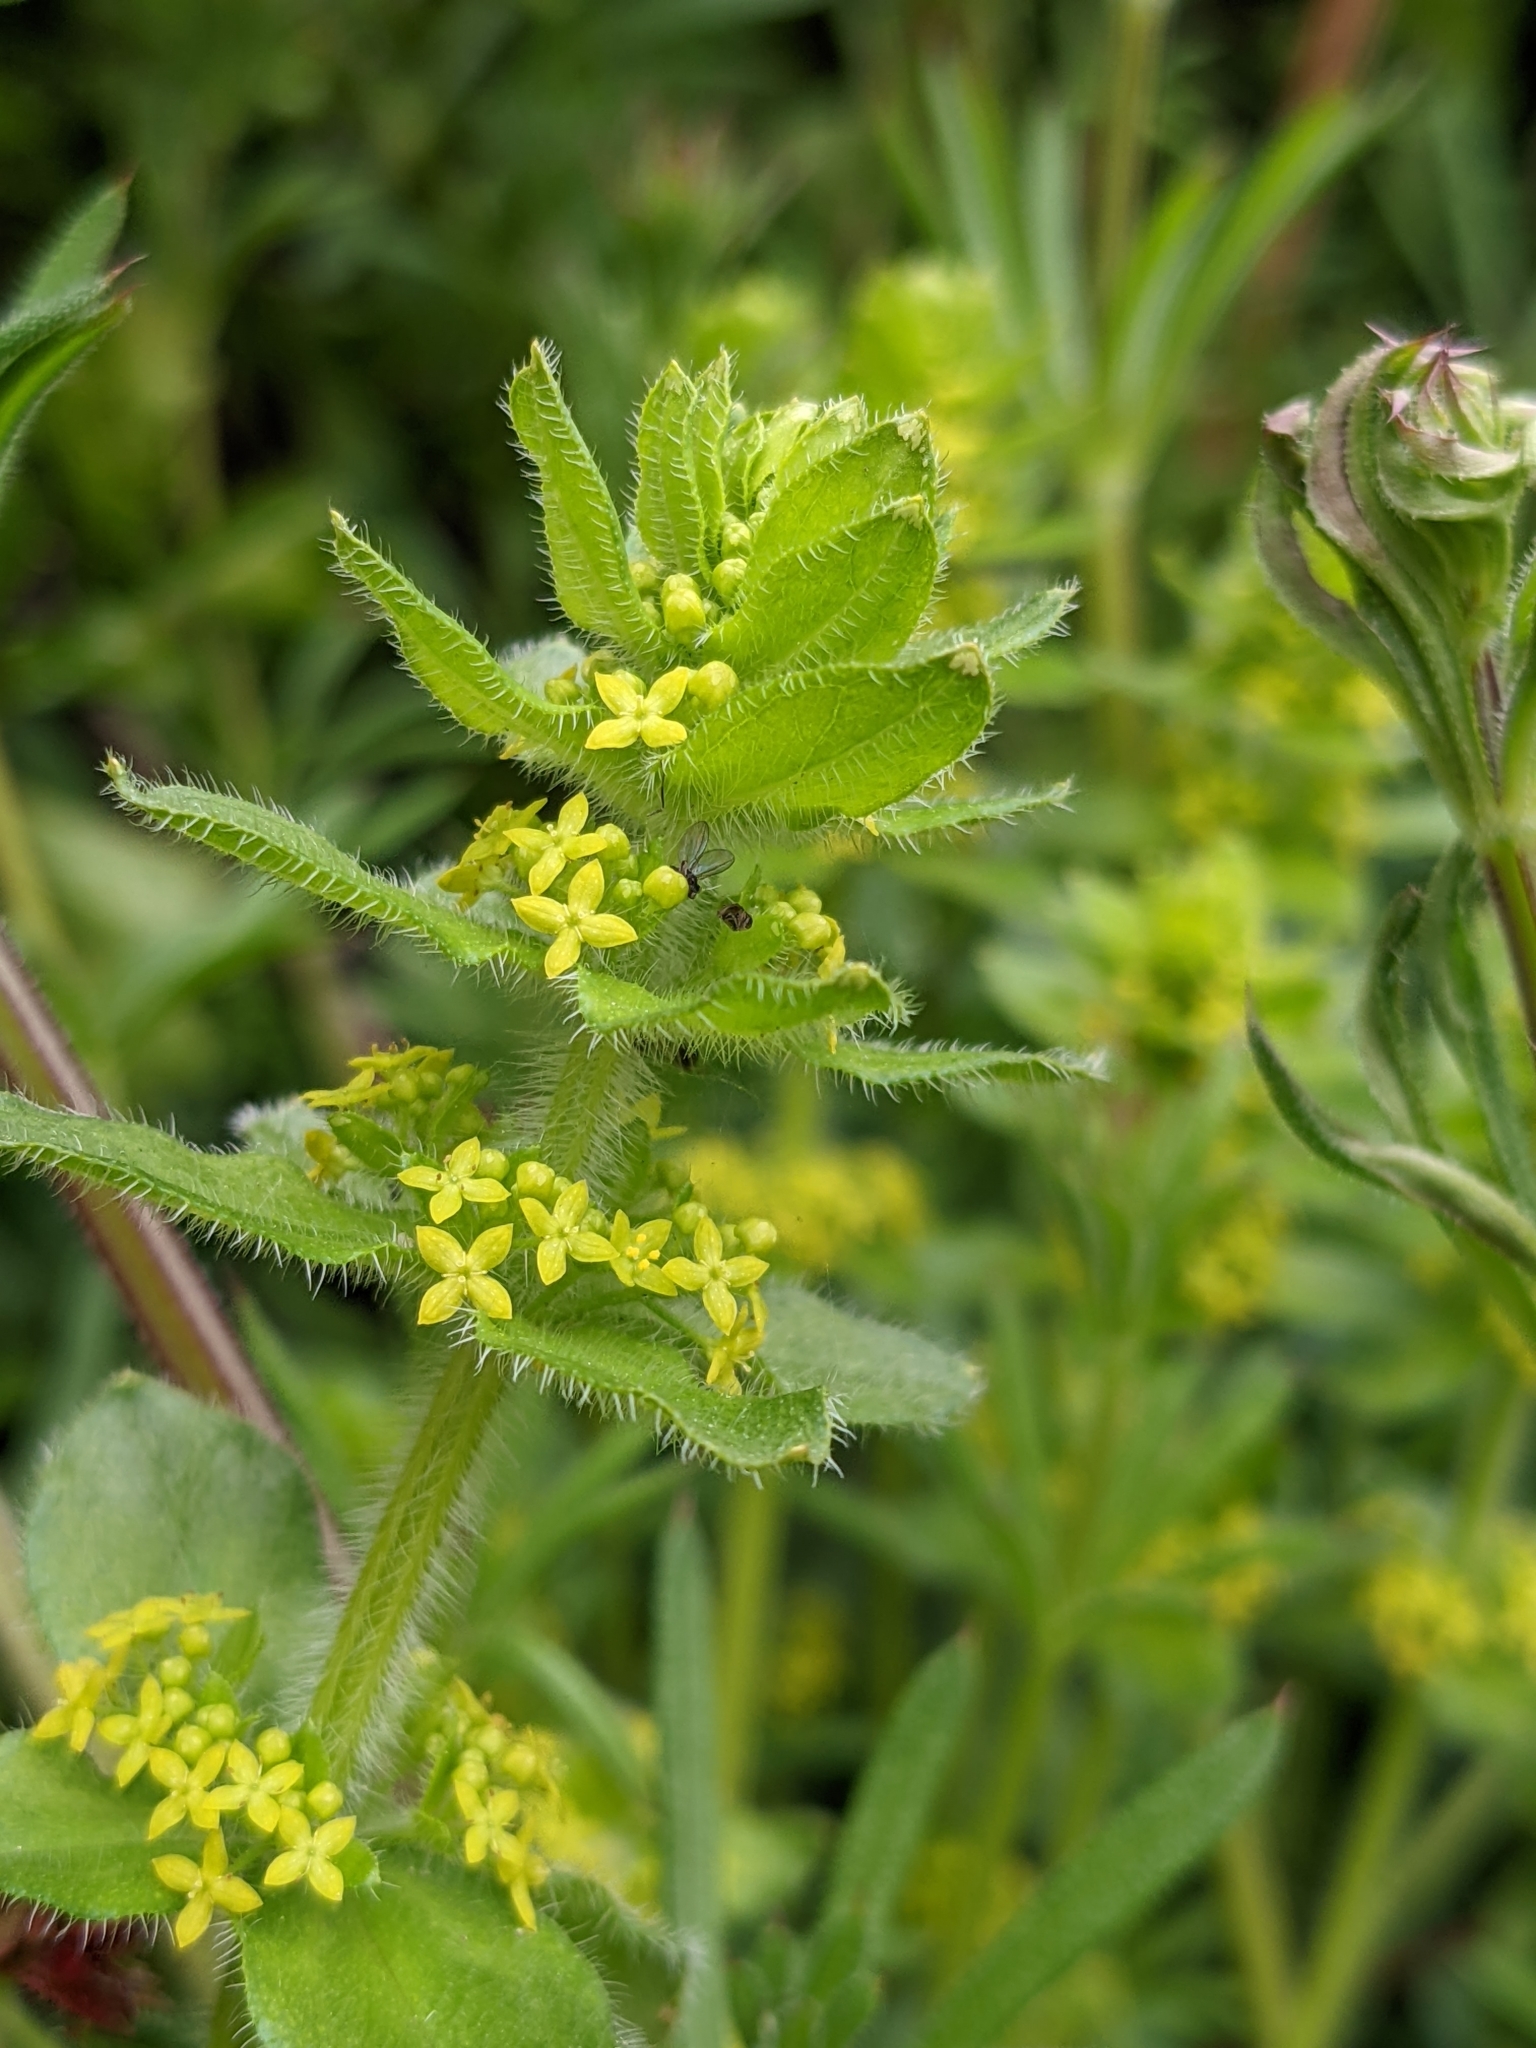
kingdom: Plantae
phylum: Tracheophyta
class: Magnoliopsida
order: Gentianales
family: Rubiaceae
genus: Cruciata
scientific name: Cruciata laevipes
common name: Crosswort
